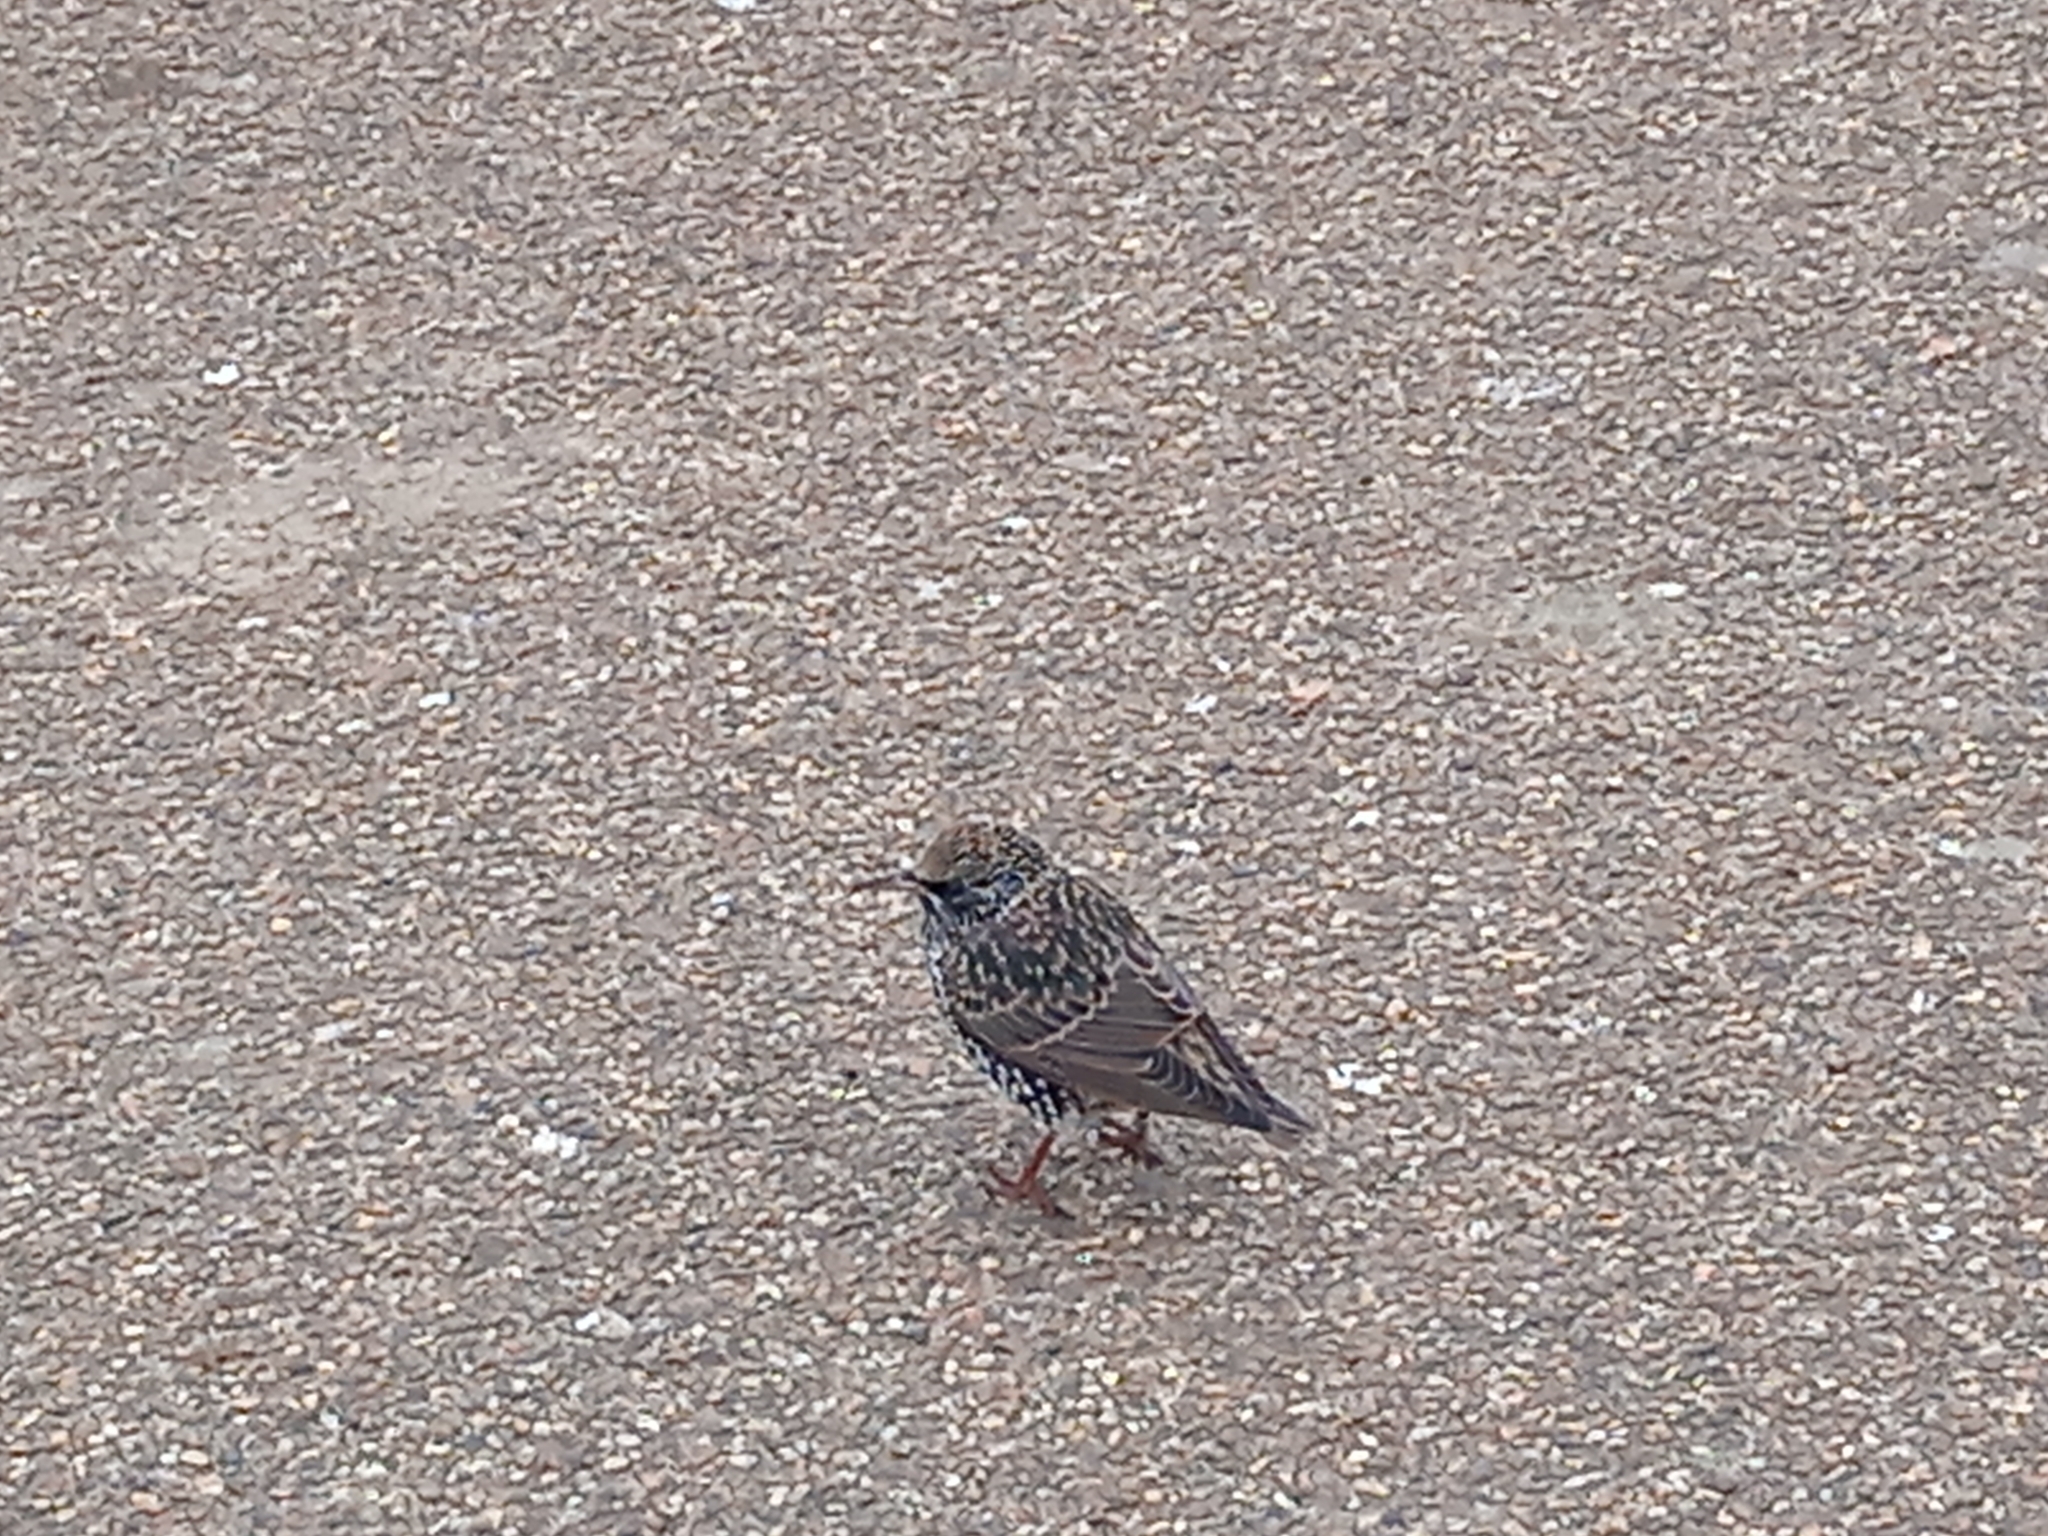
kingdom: Animalia
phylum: Chordata
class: Aves
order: Passeriformes
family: Sturnidae
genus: Sturnus
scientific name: Sturnus vulgaris
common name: Common starling
